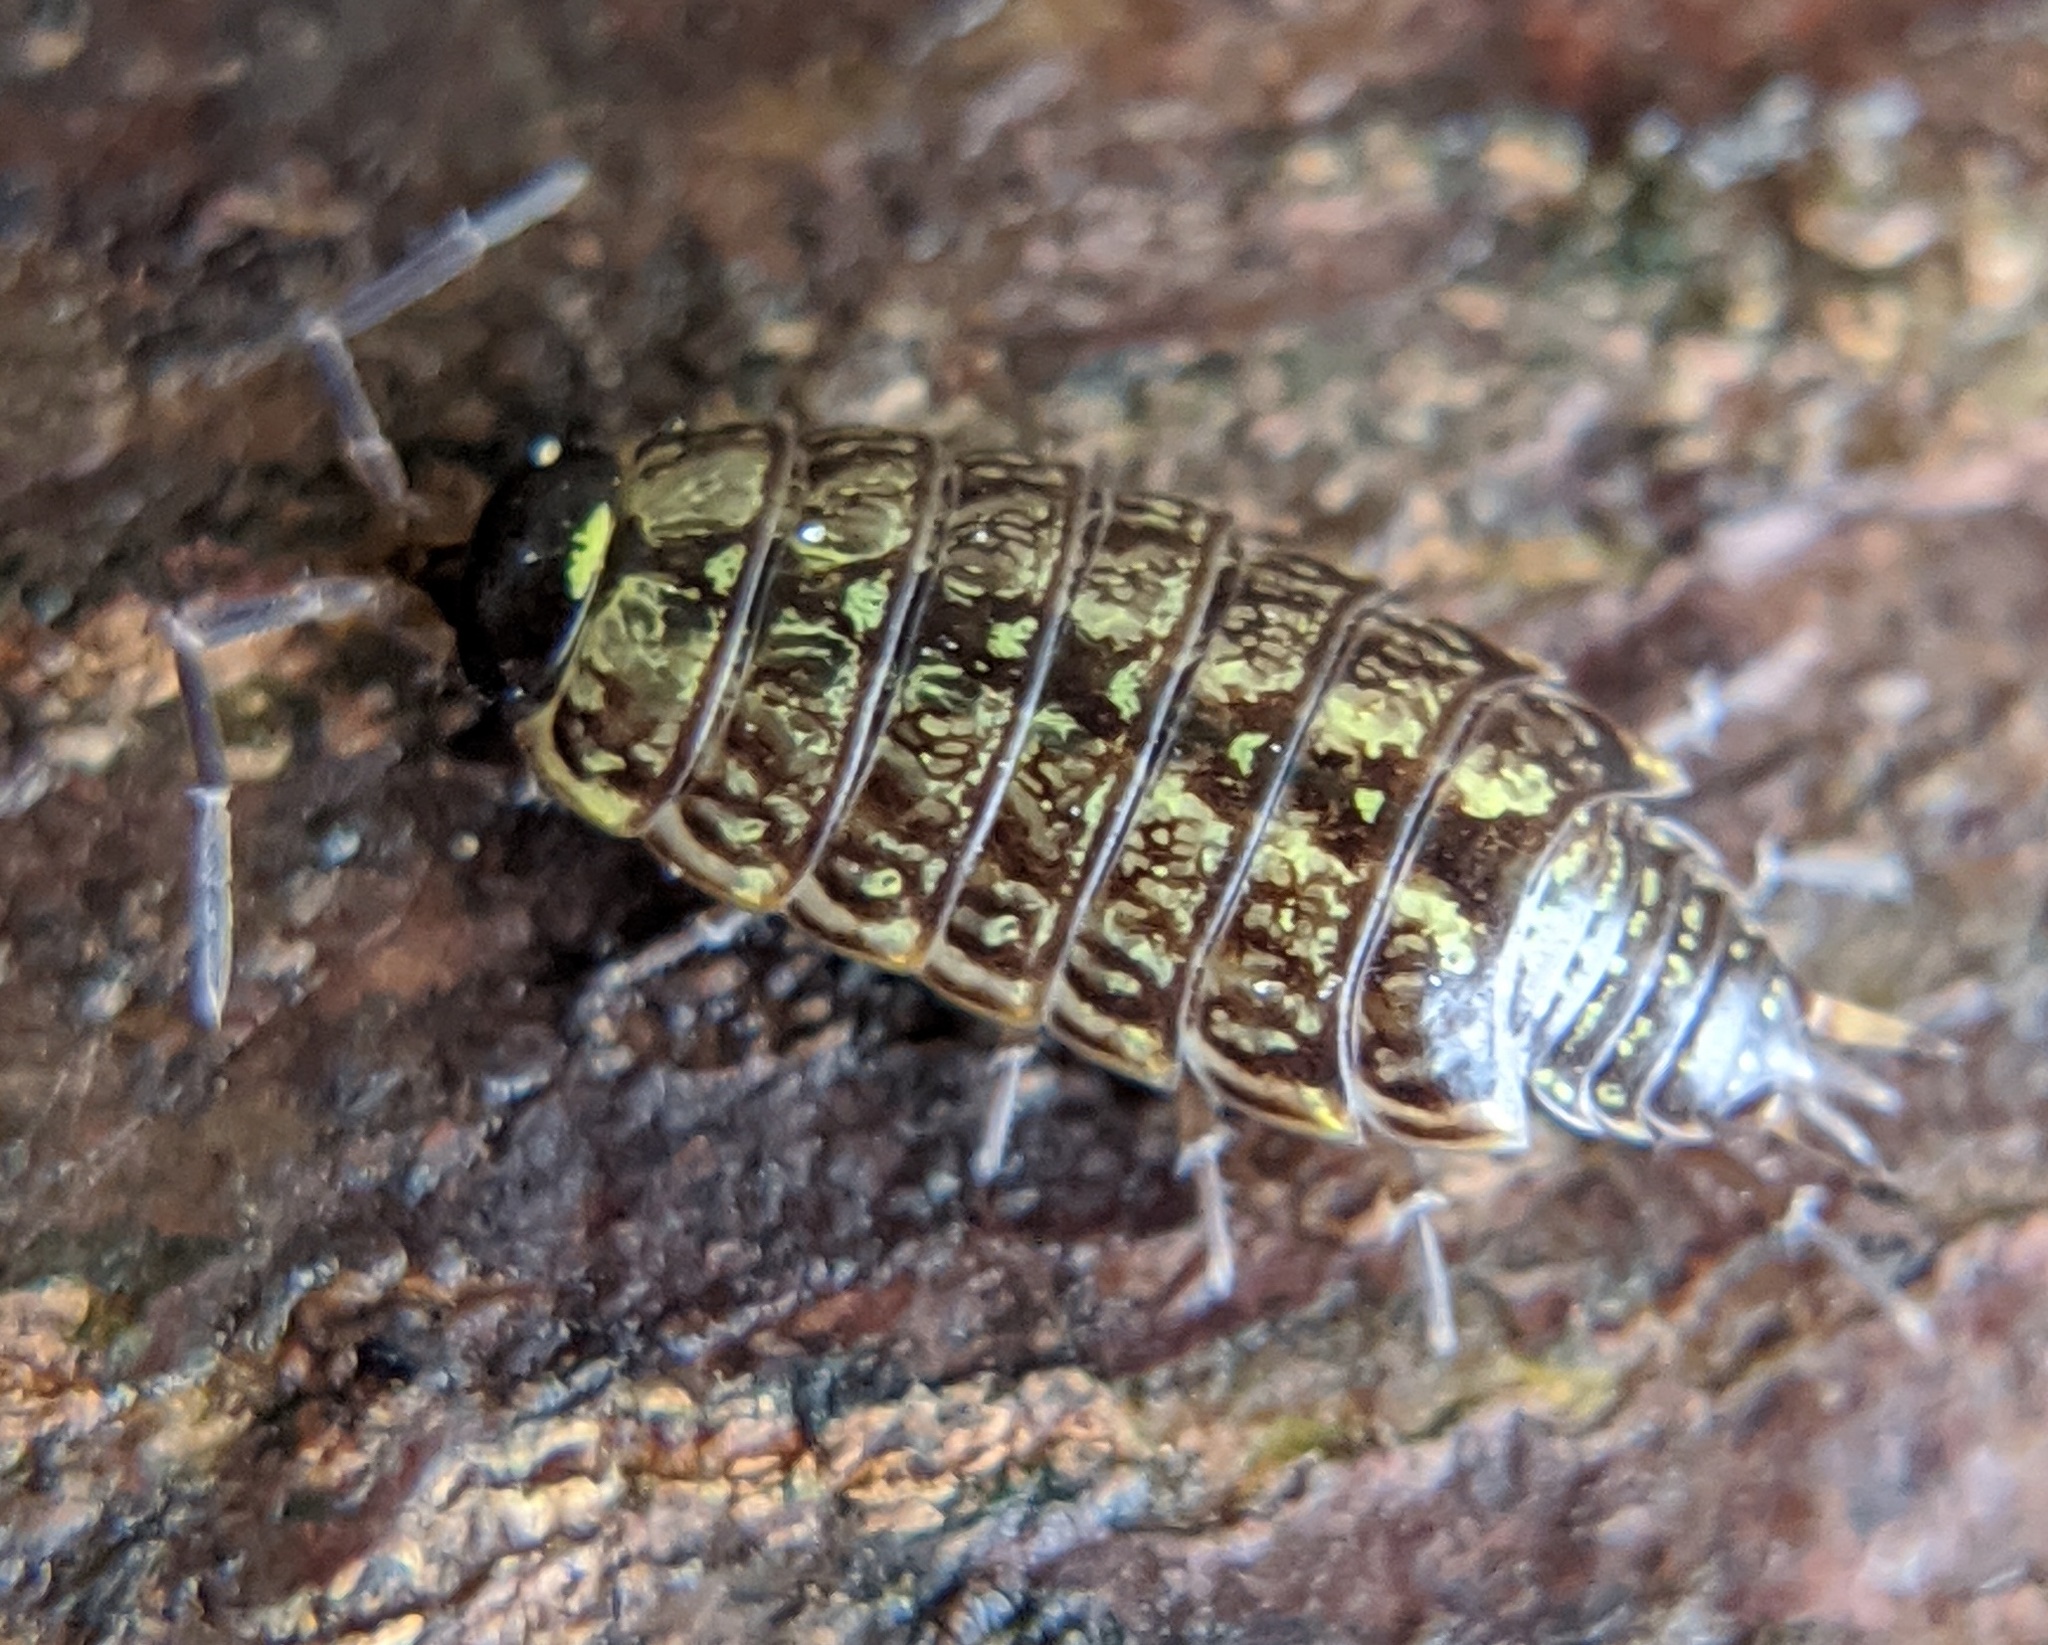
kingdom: Animalia
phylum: Arthropoda
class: Malacostraca
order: Isopoda
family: Philosciidae
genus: Philoscia
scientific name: Philoscia muscorum
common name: Common striped woodlouse
